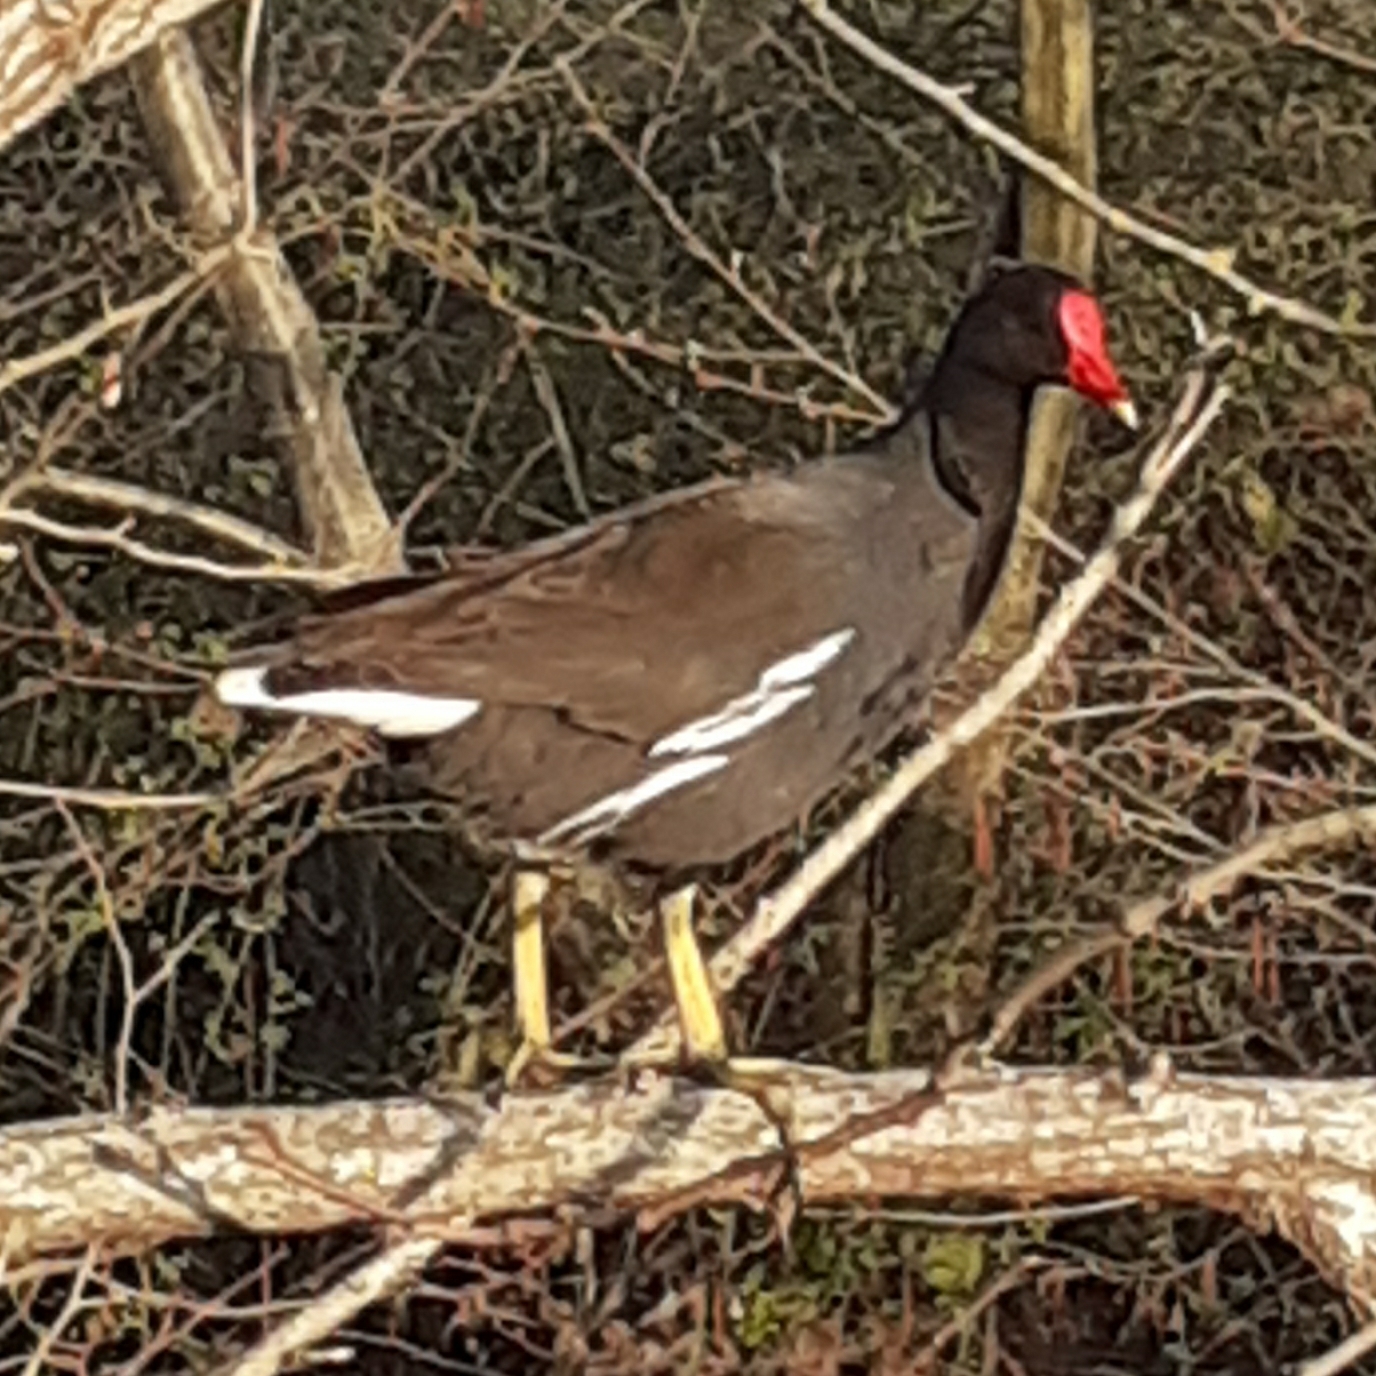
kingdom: Animalia
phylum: Chordata
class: Aves
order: Gruiformes
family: Rallidae
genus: Gallinula
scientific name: Gallinula chloropus
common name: Common moorhen
